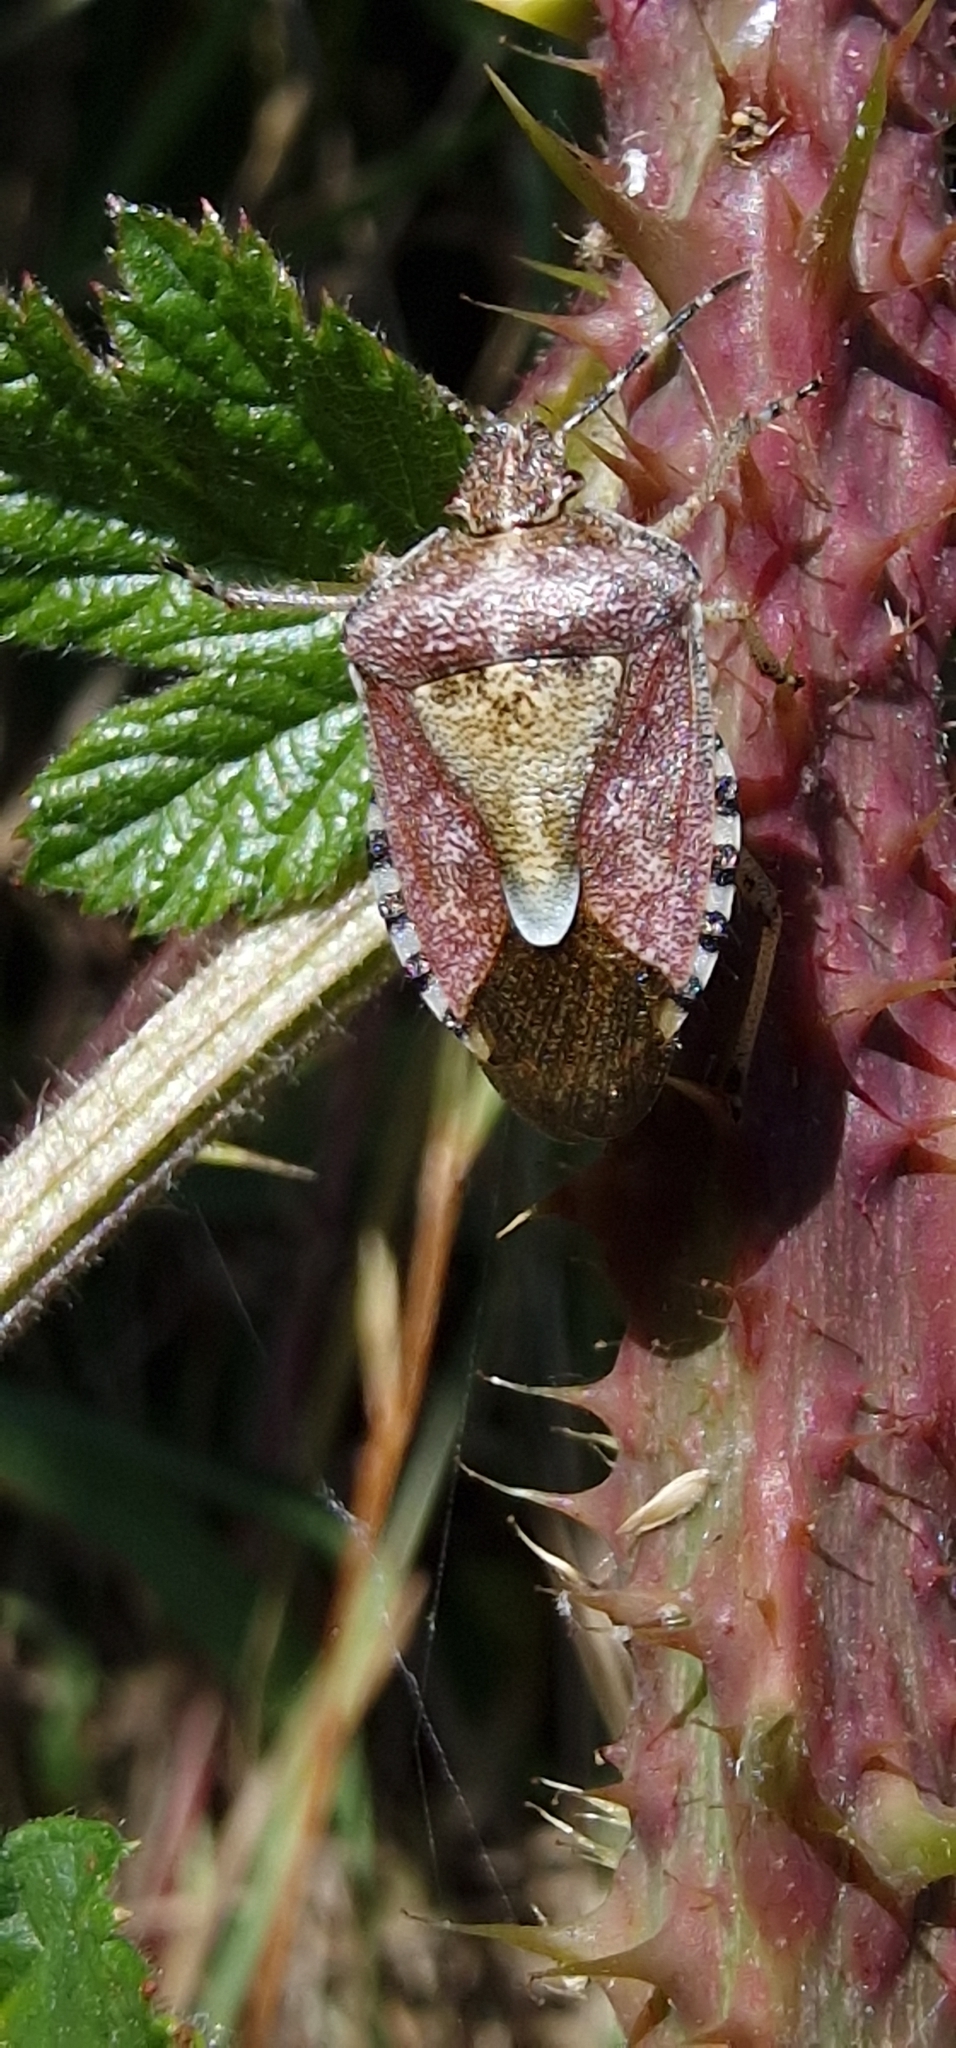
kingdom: Animalia
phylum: Arthropoda
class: Insecta
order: Hemiptera
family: Pentatomidae
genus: Dolycoris
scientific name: Dolycoris baccarum
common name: Sloe bug
